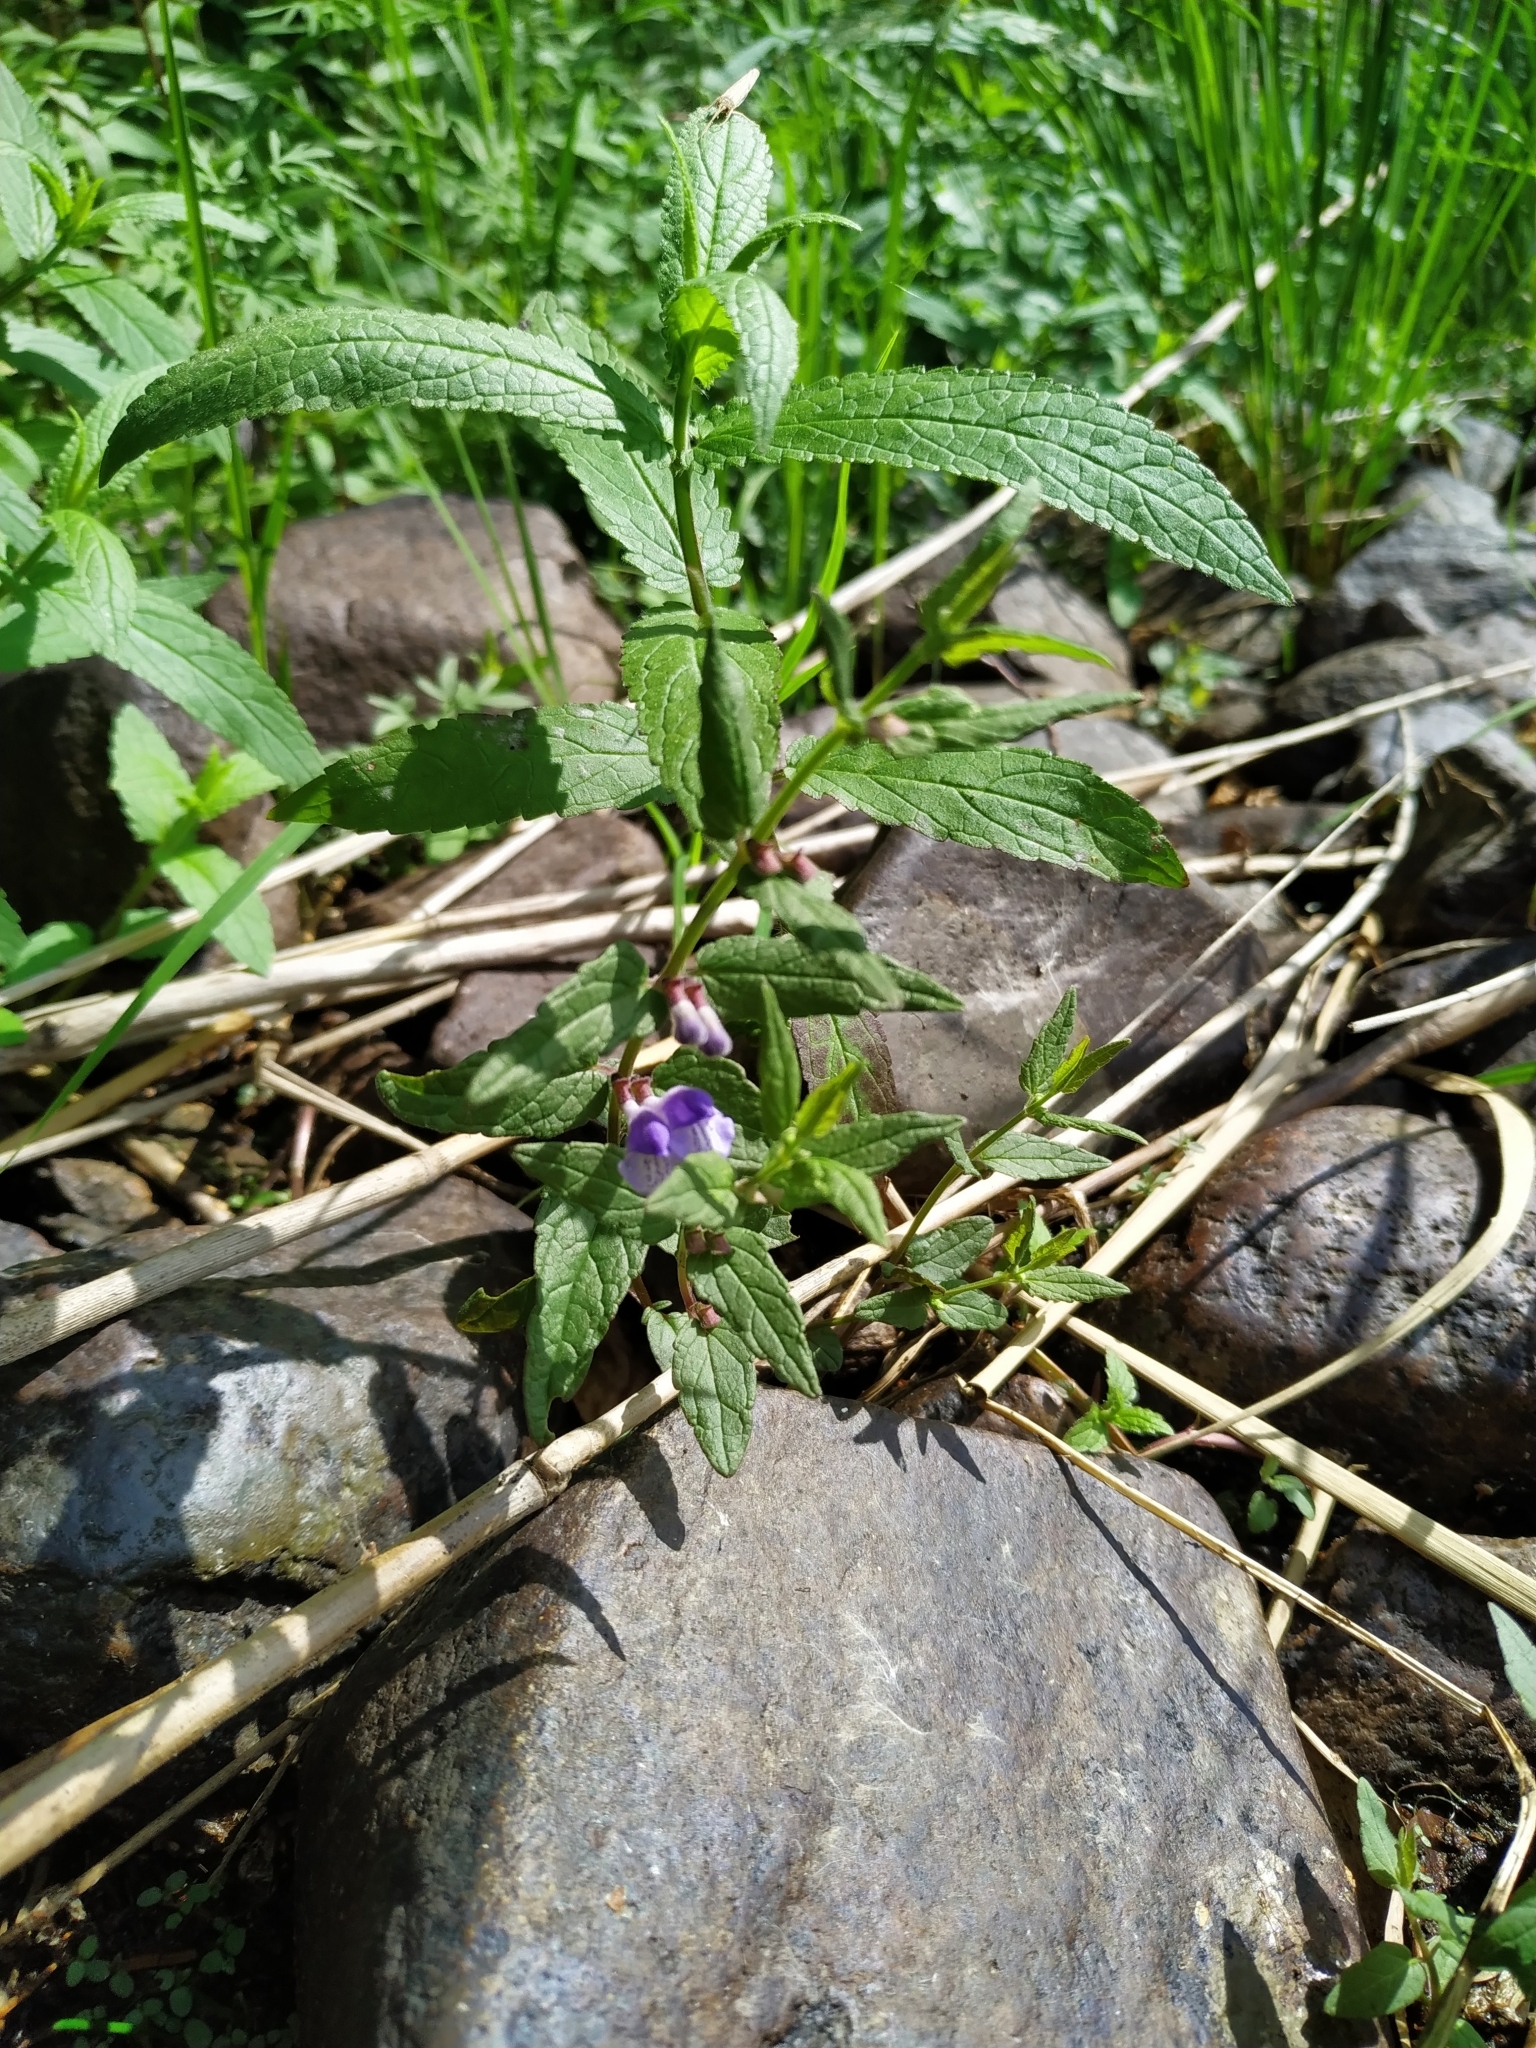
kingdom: Plantae
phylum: Tracheophyta
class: Magnoliopsida
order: Lamiales
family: Lamiaceae
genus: Scutellaria
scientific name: Scutellaria galericulata
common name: Skullcap
